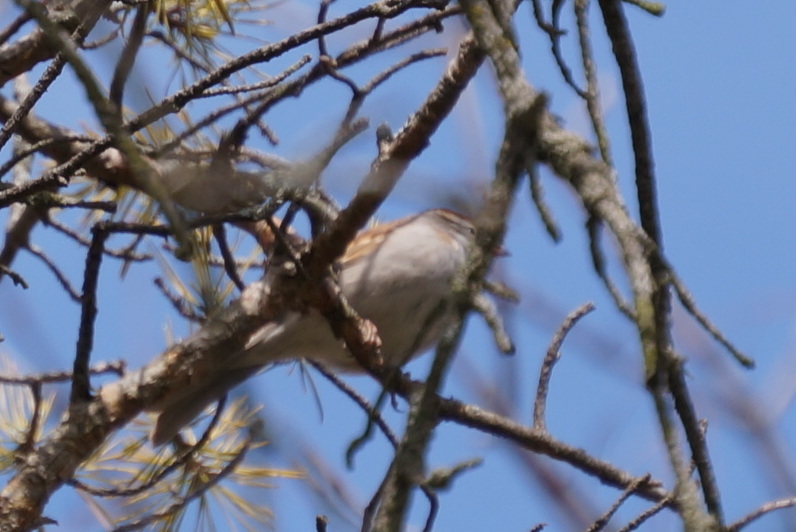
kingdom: Animalia
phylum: Chordata
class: Aves
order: Passeriformes
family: Passerellidae
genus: Spizella
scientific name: Spizella passerina
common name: Chipping sparrow
